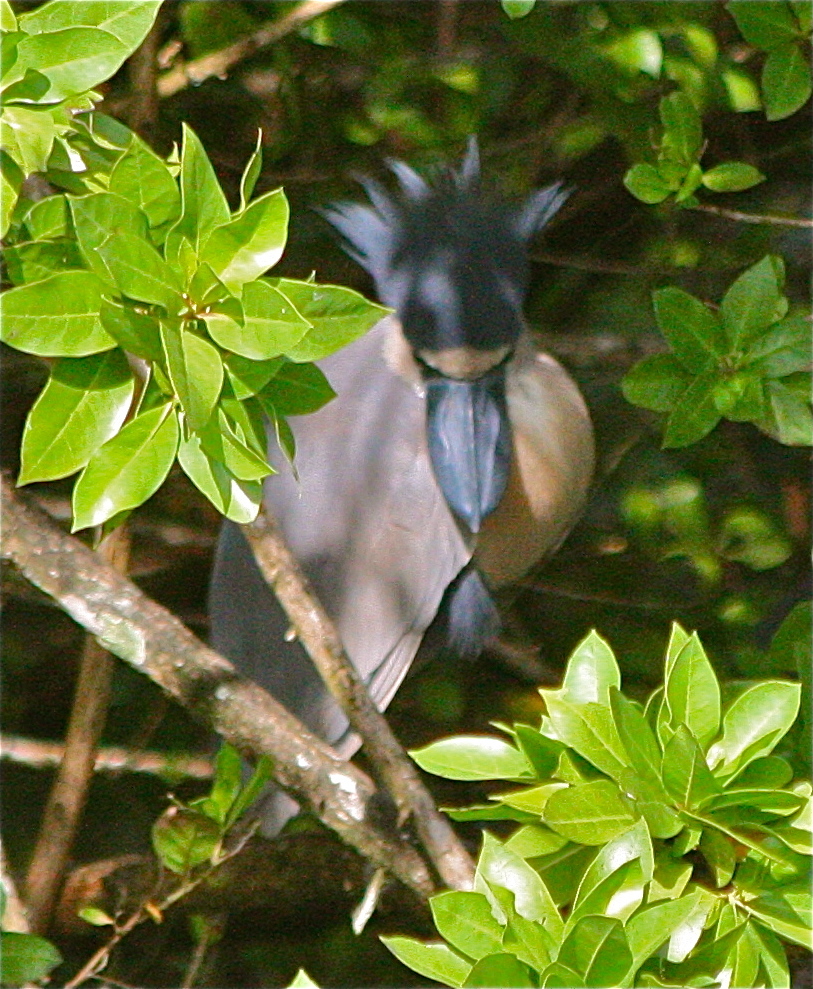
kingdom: Animalia
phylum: Chordata
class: Aves
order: Pelecaniformes
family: Ardeidae
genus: Cochlearius
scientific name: Cochlearius cochlearius
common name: Boat-billed heron
